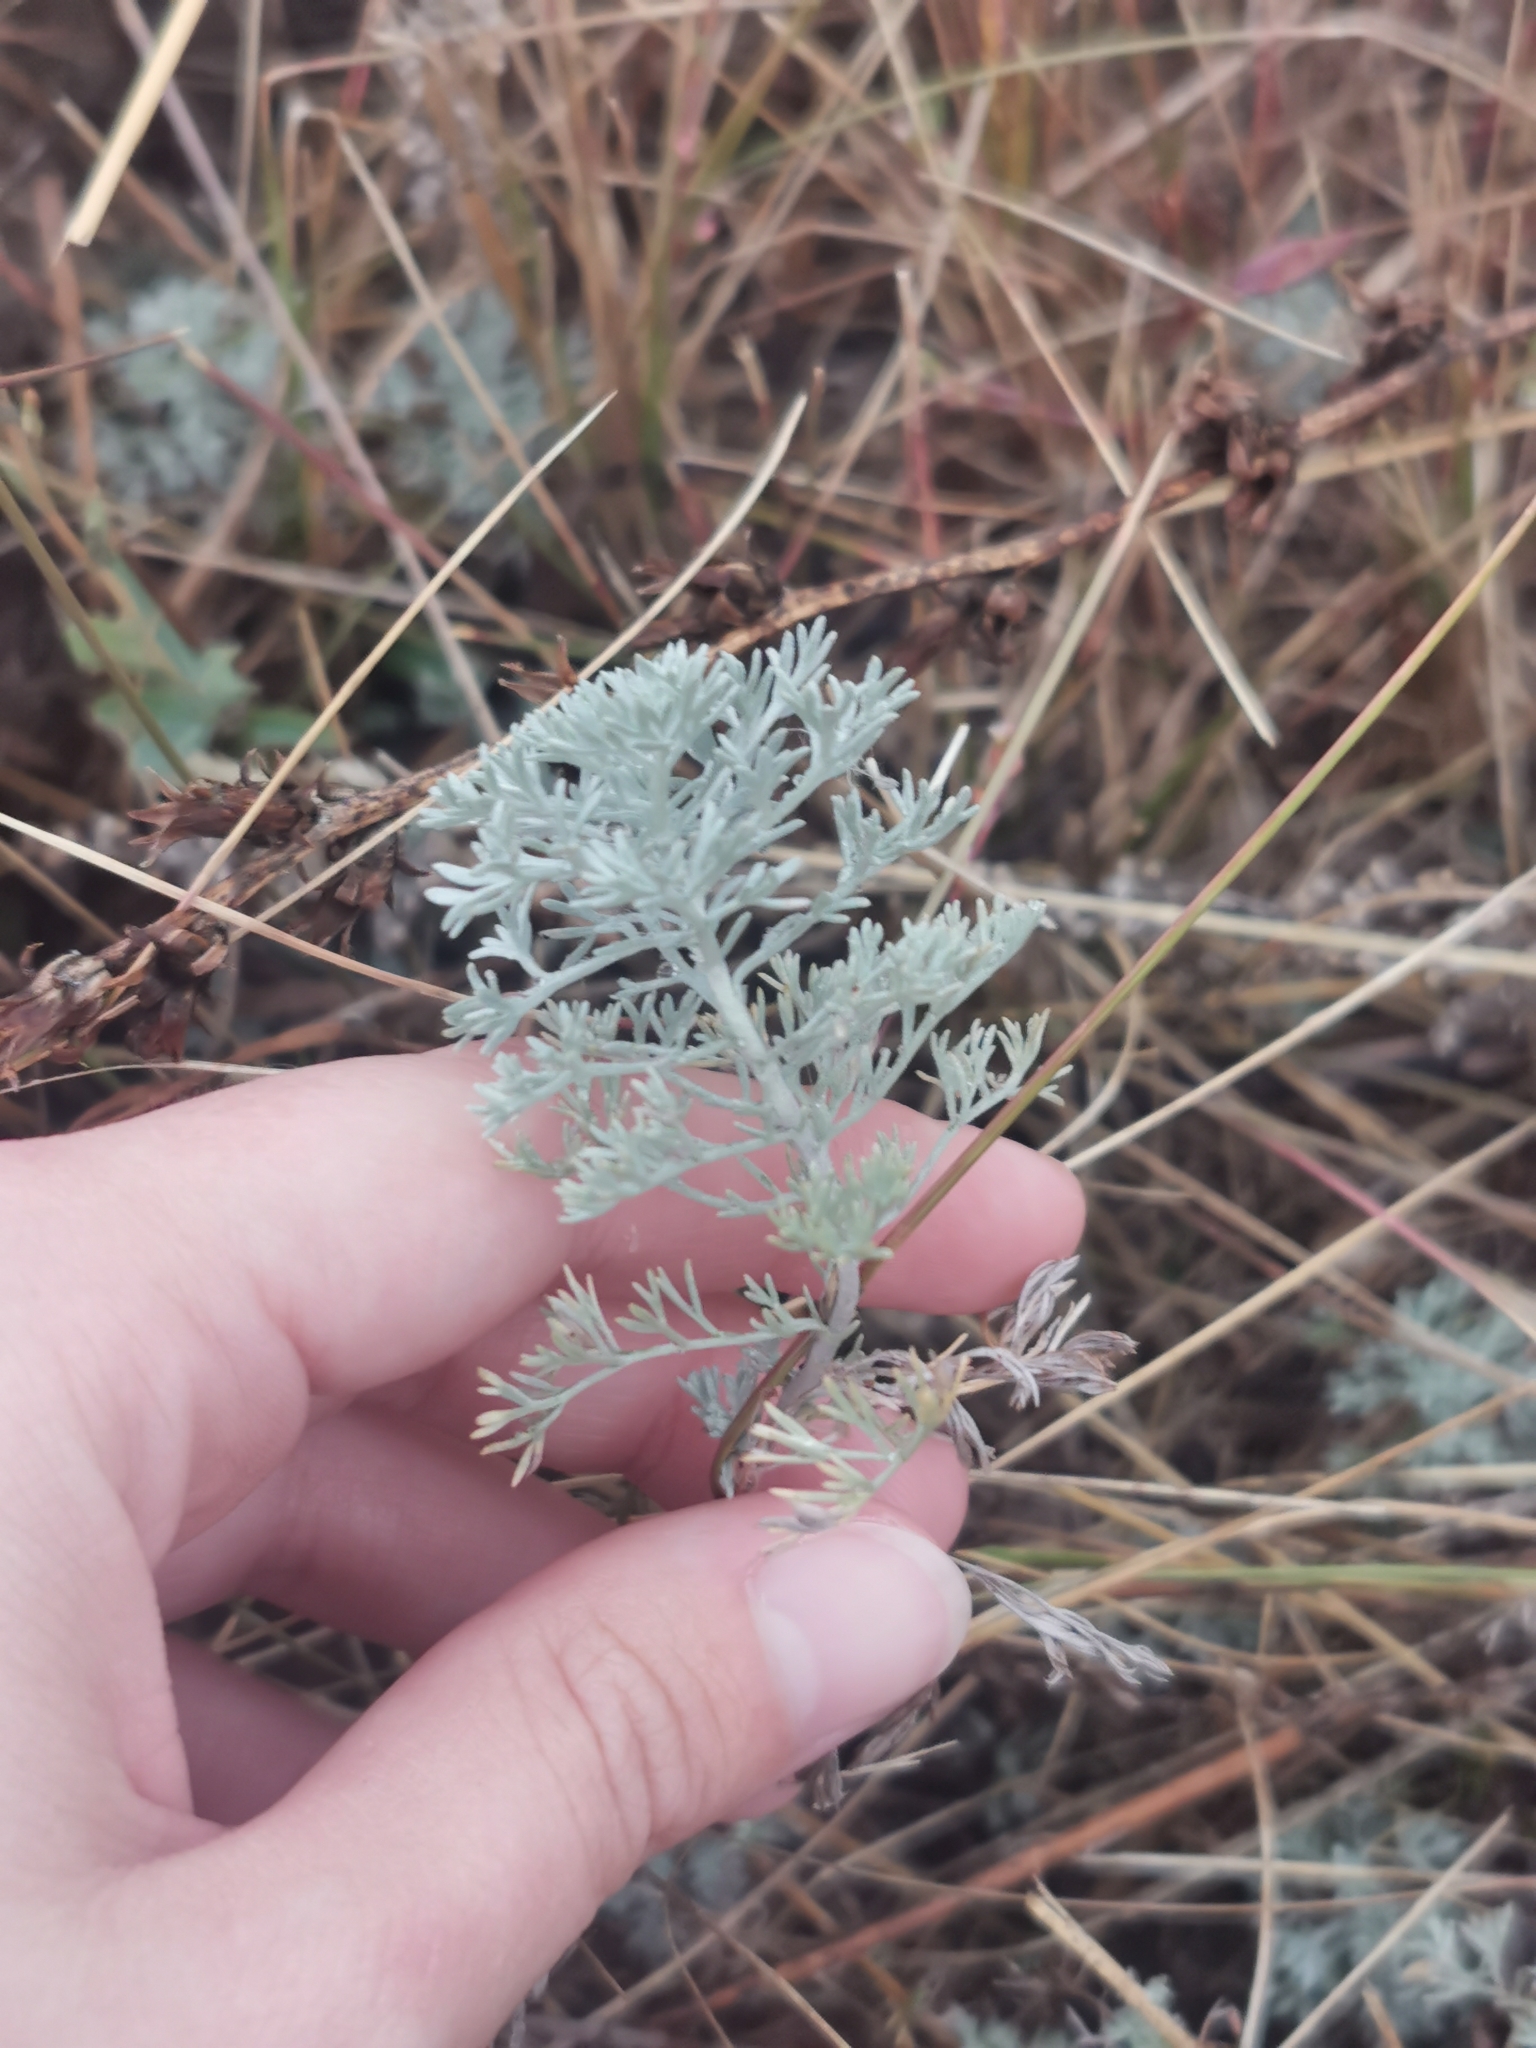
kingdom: Plantae
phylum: Tracheophyta
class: Magnoliopsida
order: Asterales
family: Asteraceae
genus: Artemisia
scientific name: Artemisia austriaca
